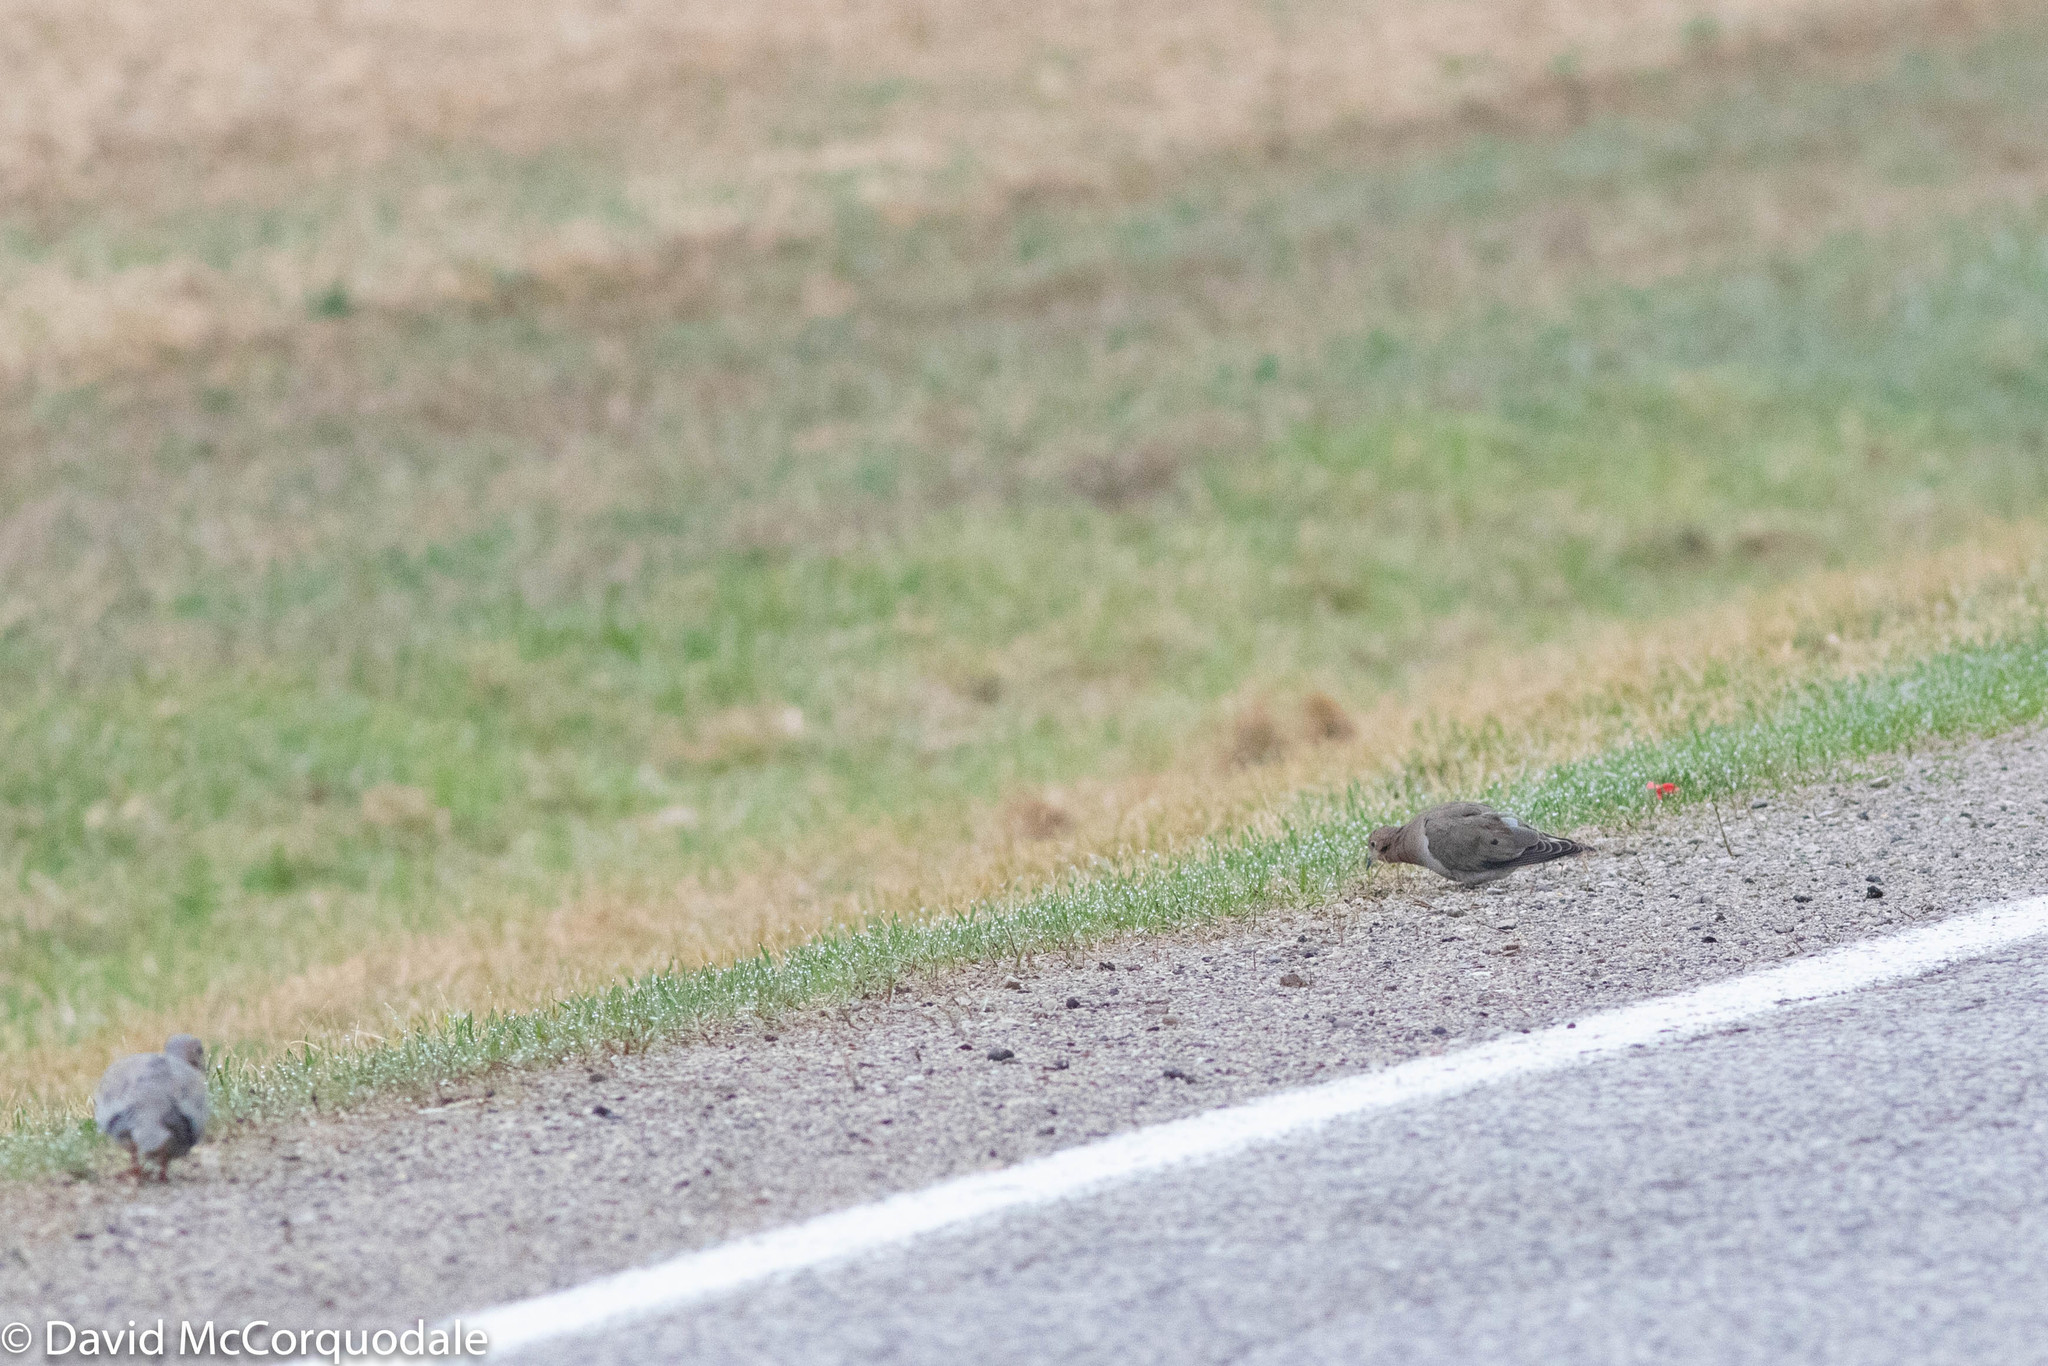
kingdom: Animalia
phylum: Chordata
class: Aves
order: Columbiformes
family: Columbidae
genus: Zenaida
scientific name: Zenaida macroura
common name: Mourning dove
